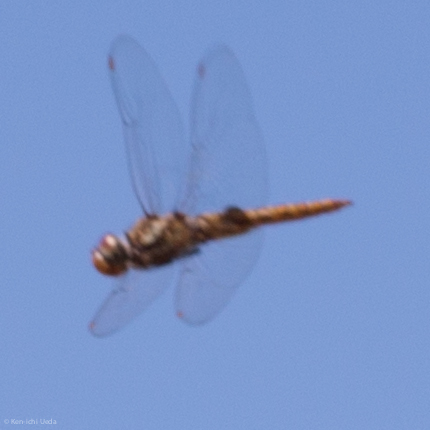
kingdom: Animalia
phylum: Arthropoda
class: Insecta
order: Odonata
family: Libellulidae
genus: Pantala
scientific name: Pantala hymenaea
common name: Spot-winged glider
